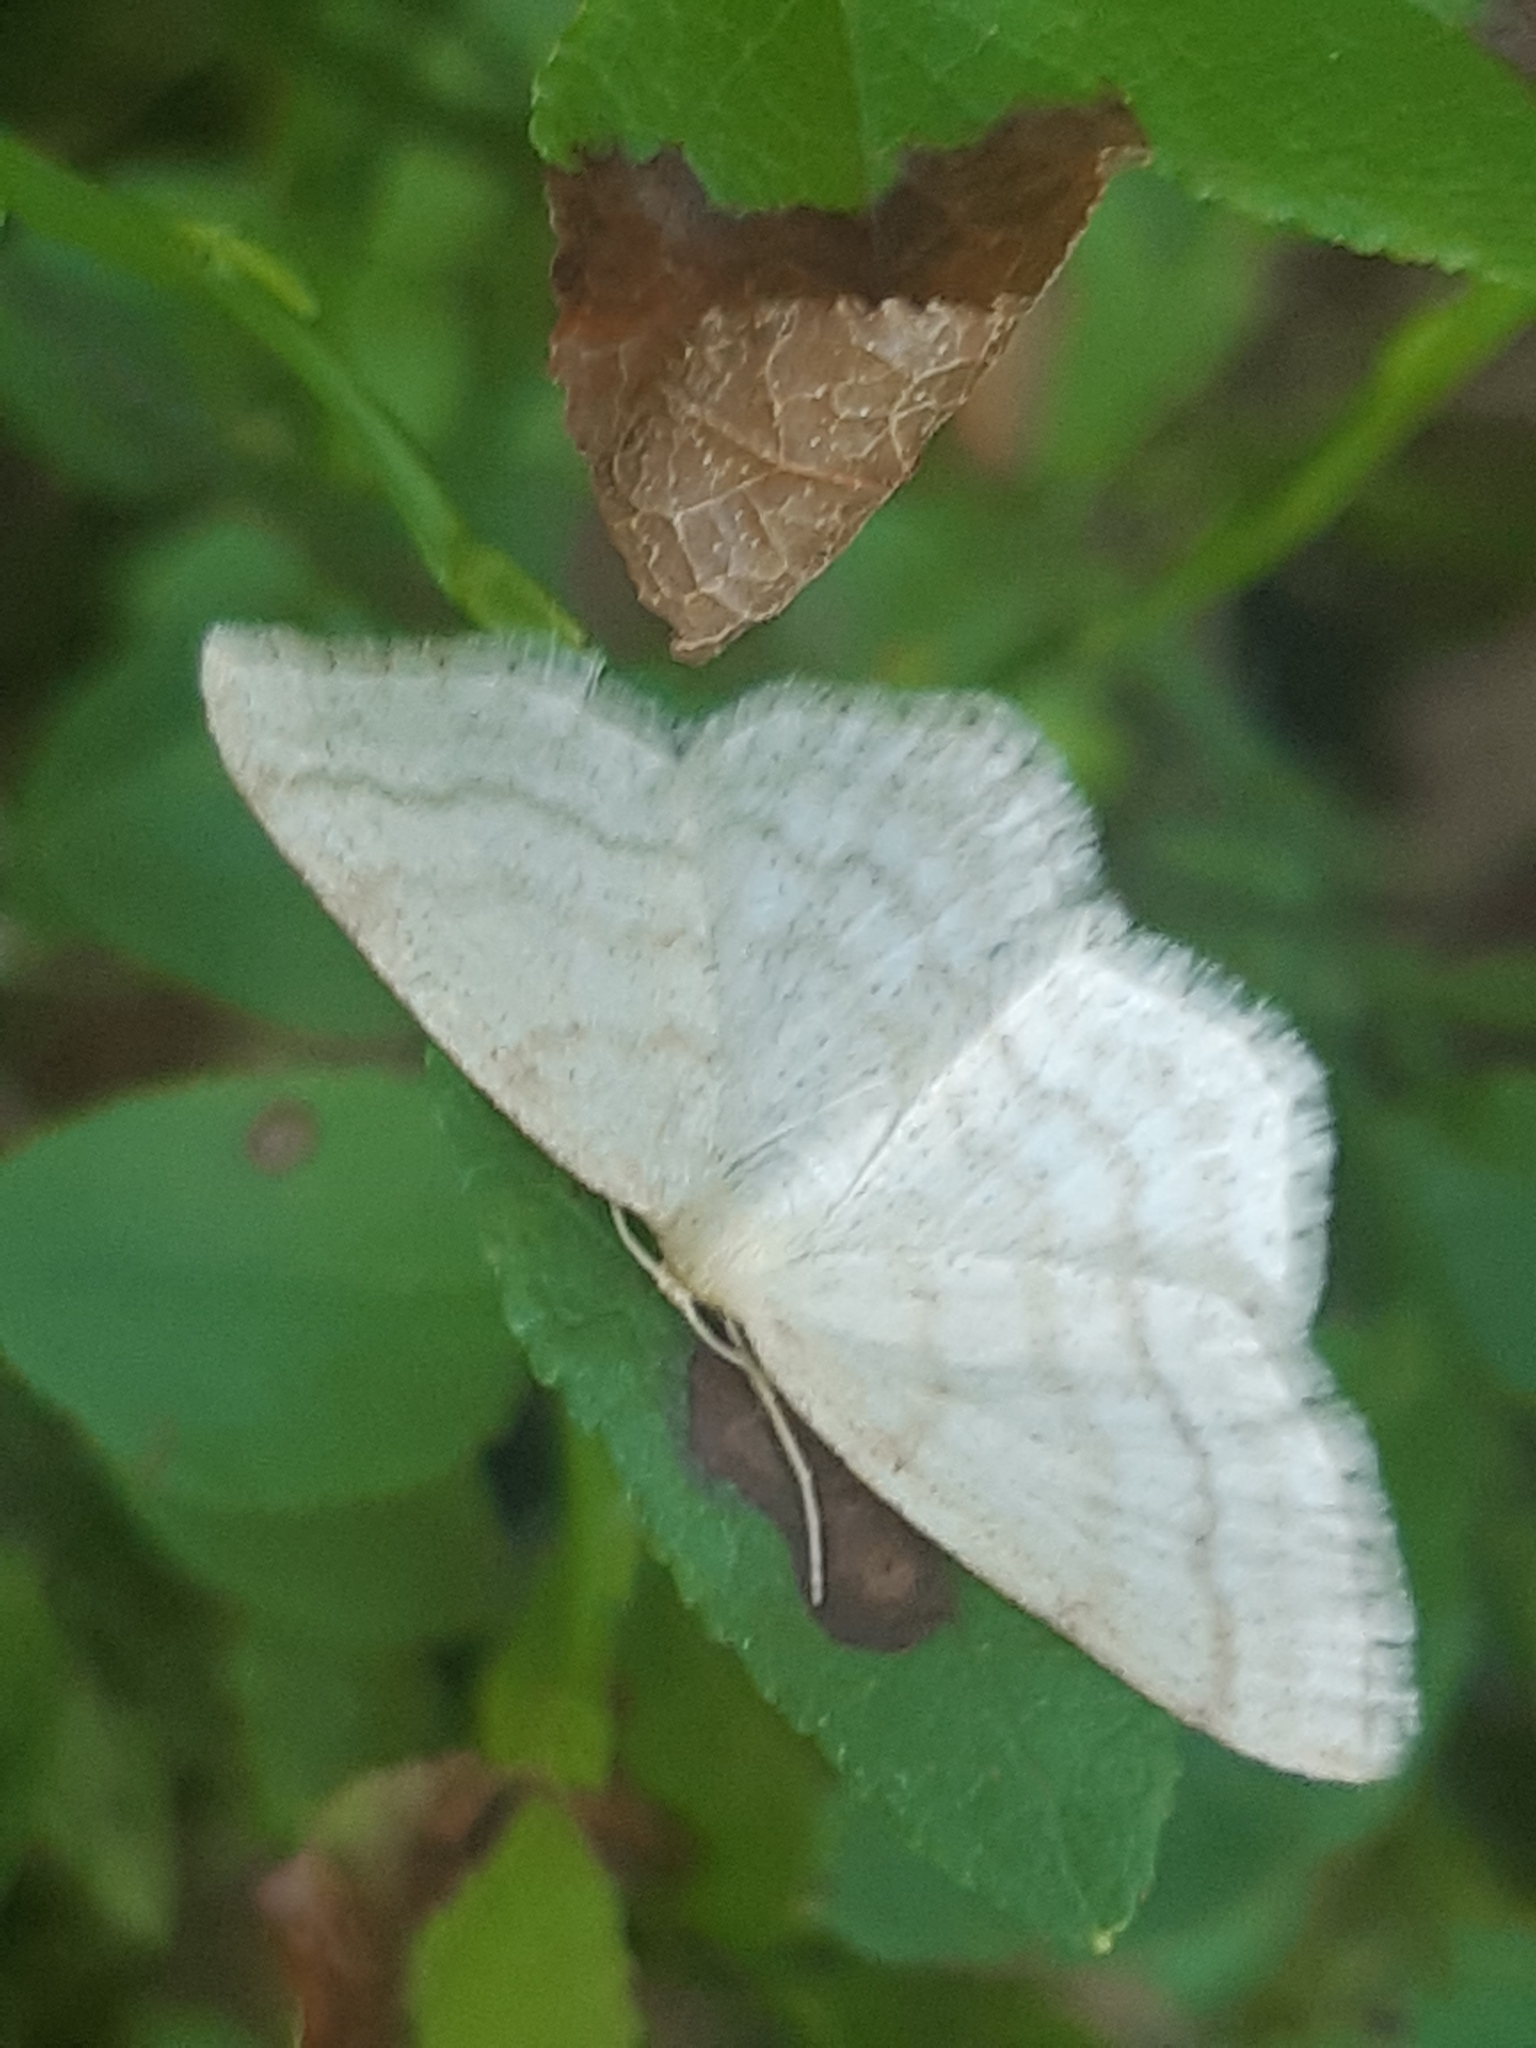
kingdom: Animalia
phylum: Arthropoda
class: Insecta
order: Lepidoptera
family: Geometridae
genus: Scopula
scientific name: Scopula ternata
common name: Smoky wave
